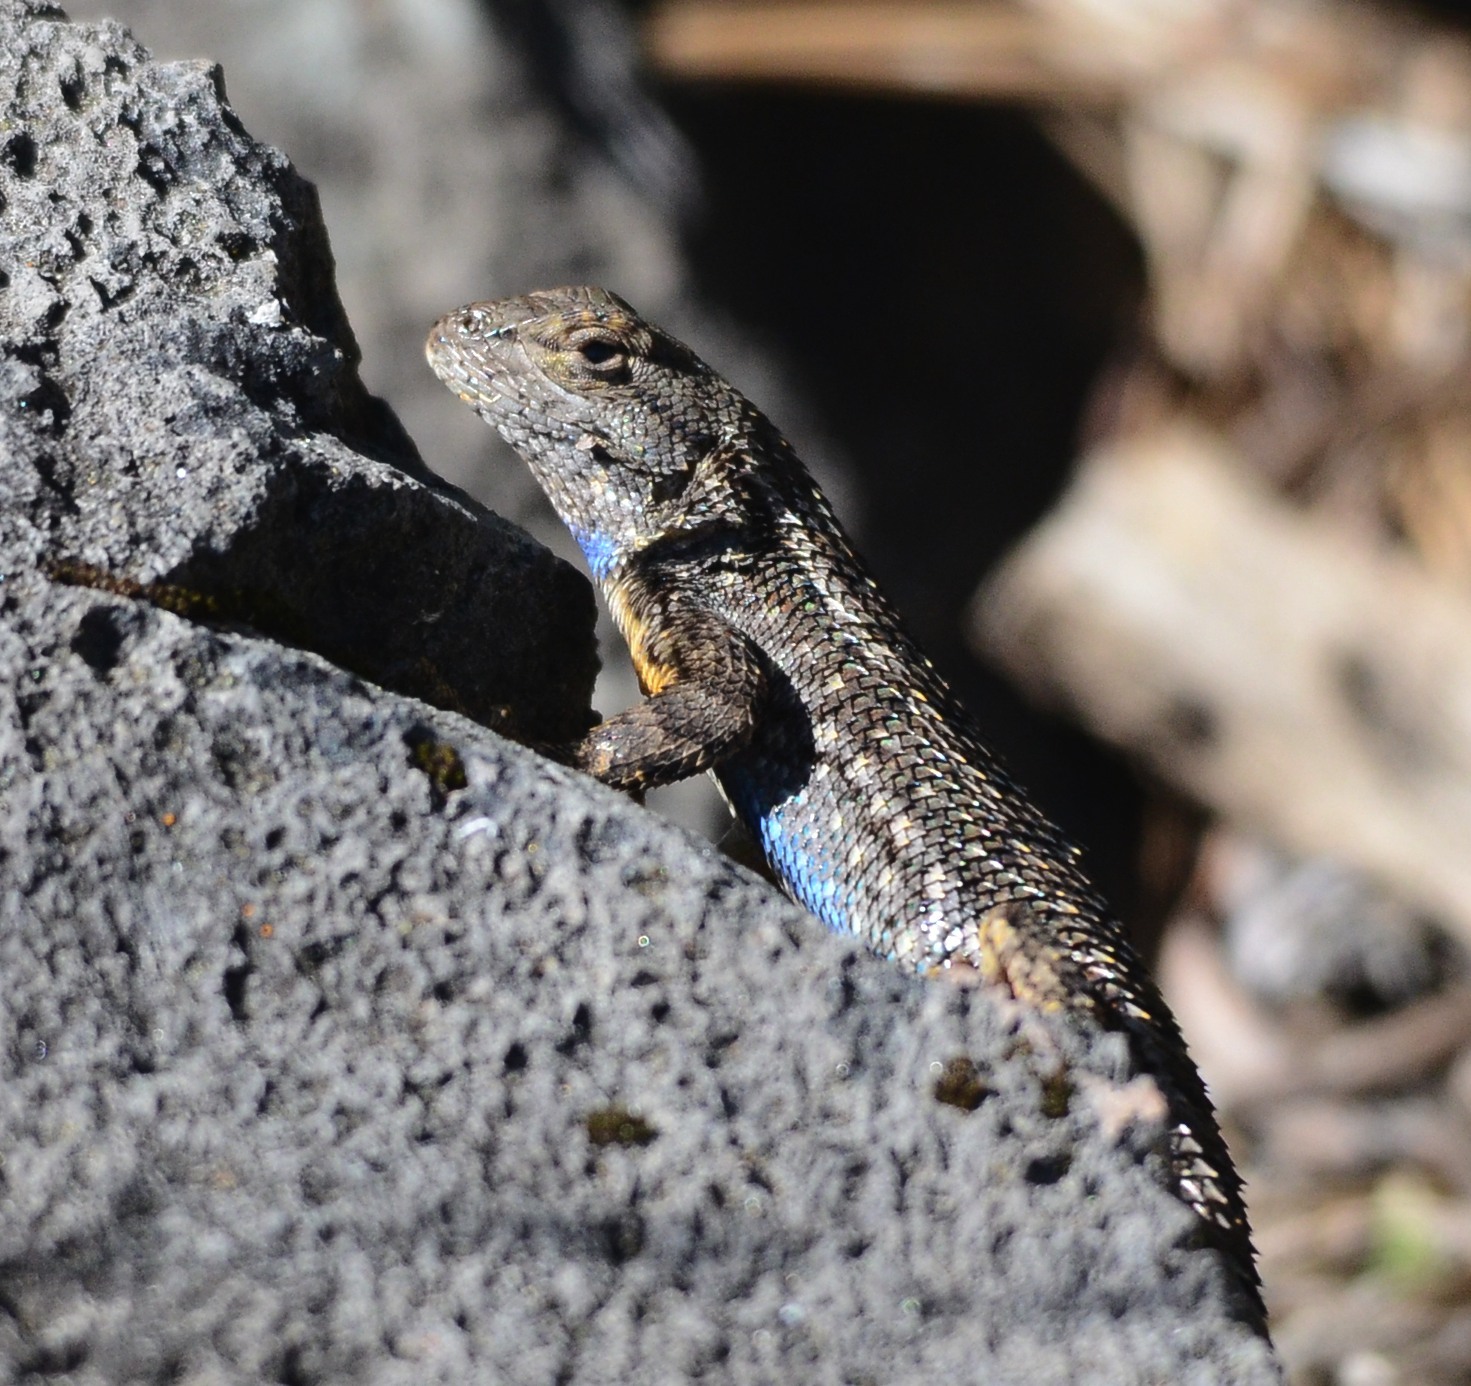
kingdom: Animalia
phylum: Chordata
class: Squamata
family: Phrynosomatidae
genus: Sceloporus
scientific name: Sceloporus occidentalis
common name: Western fence lizard
